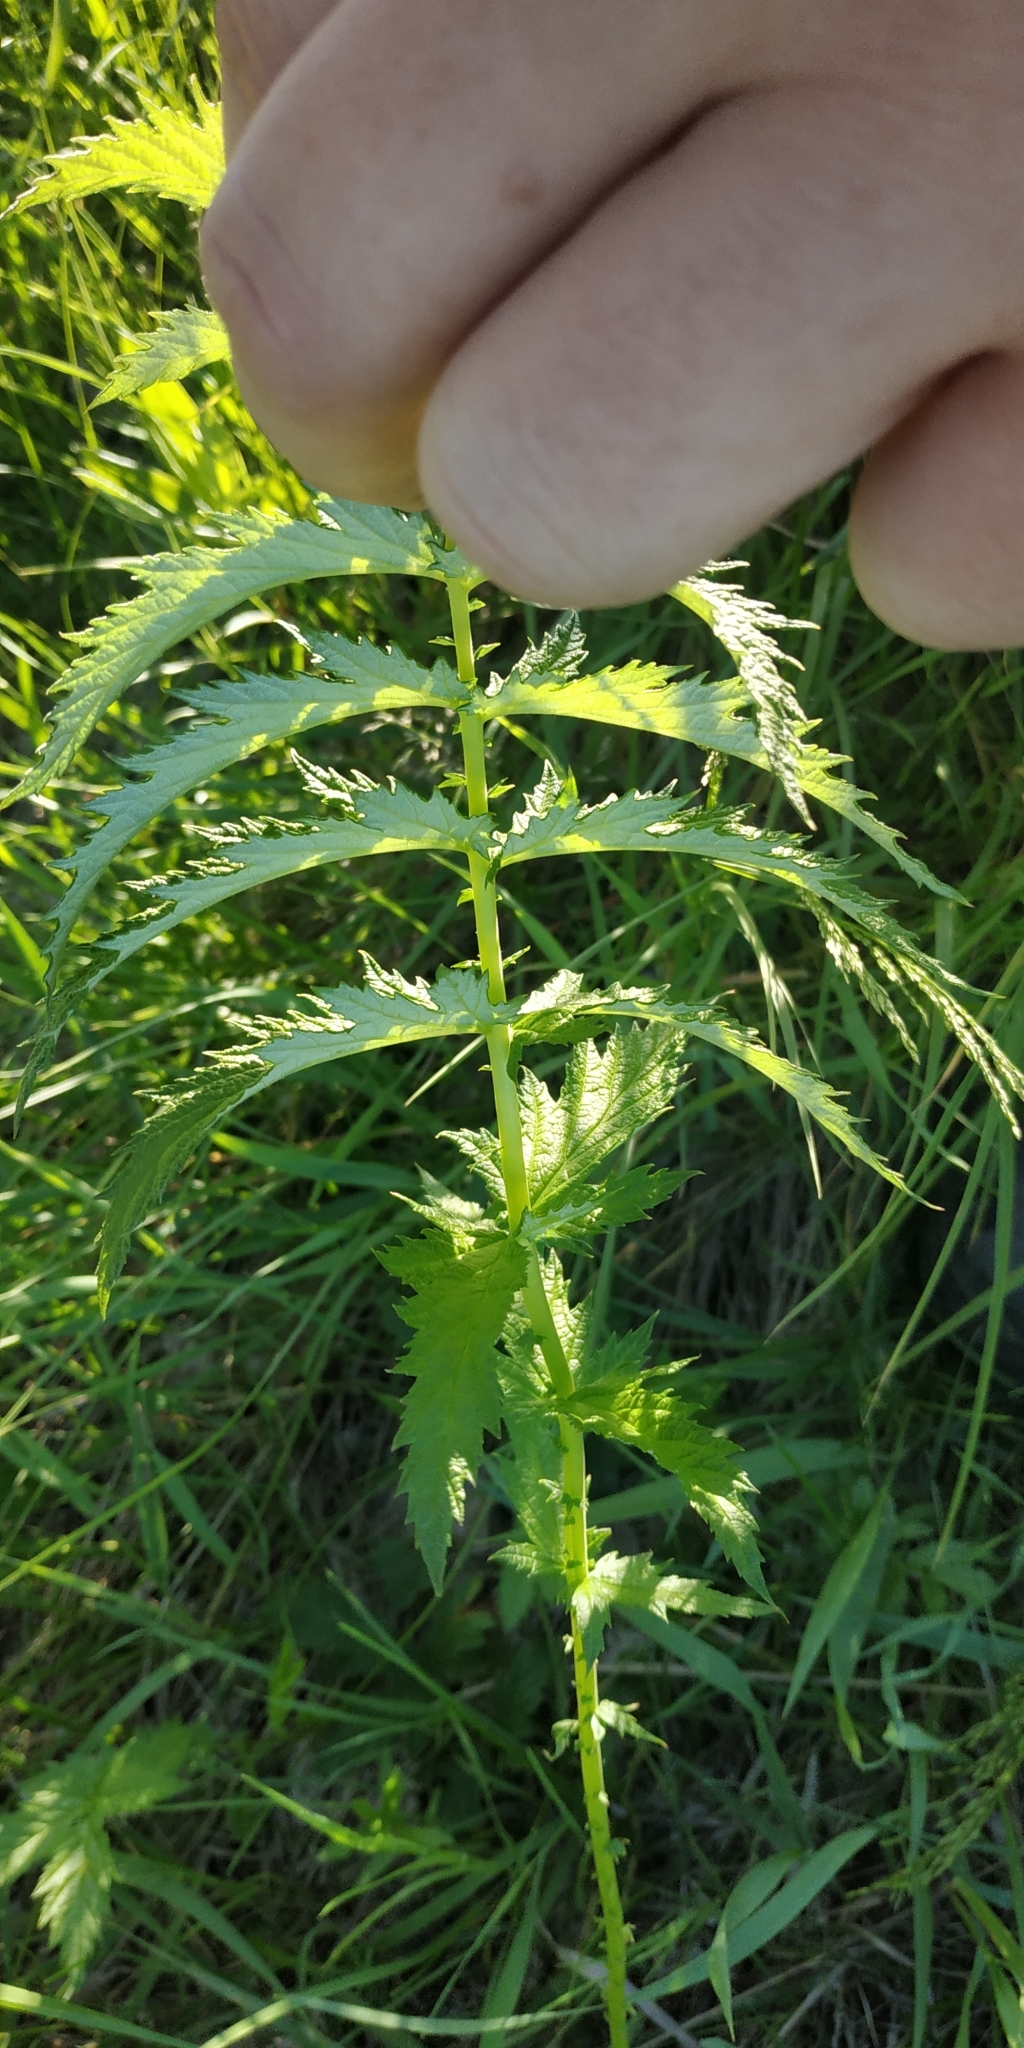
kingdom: Plantae
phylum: Tracheophyta
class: Magnoliopsida
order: Rosales
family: Rosaceae
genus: Filipendula
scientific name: Filipendula ulmaria
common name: Meadowsweet
